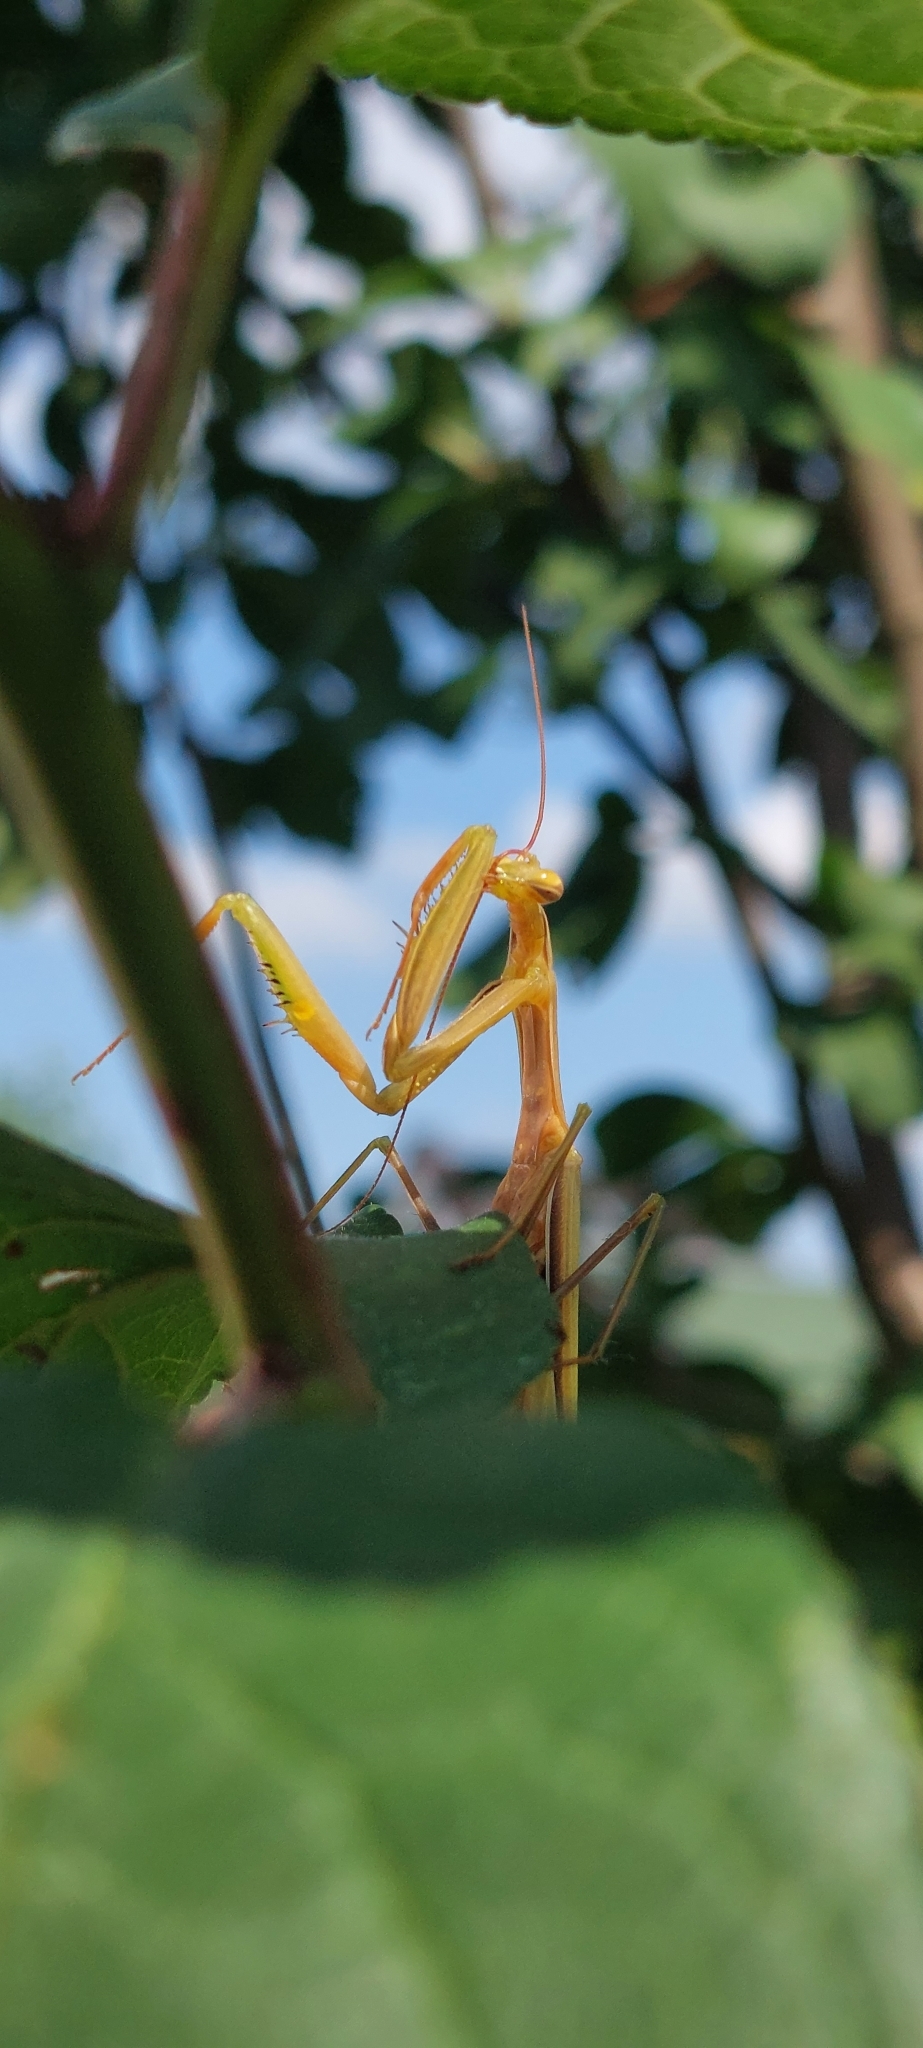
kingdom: Animalia
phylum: Arthropoda
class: Insecta
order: Mantodea
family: Mantidae
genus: Mantis
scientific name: Mantis religiosa
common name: Praying mantis
